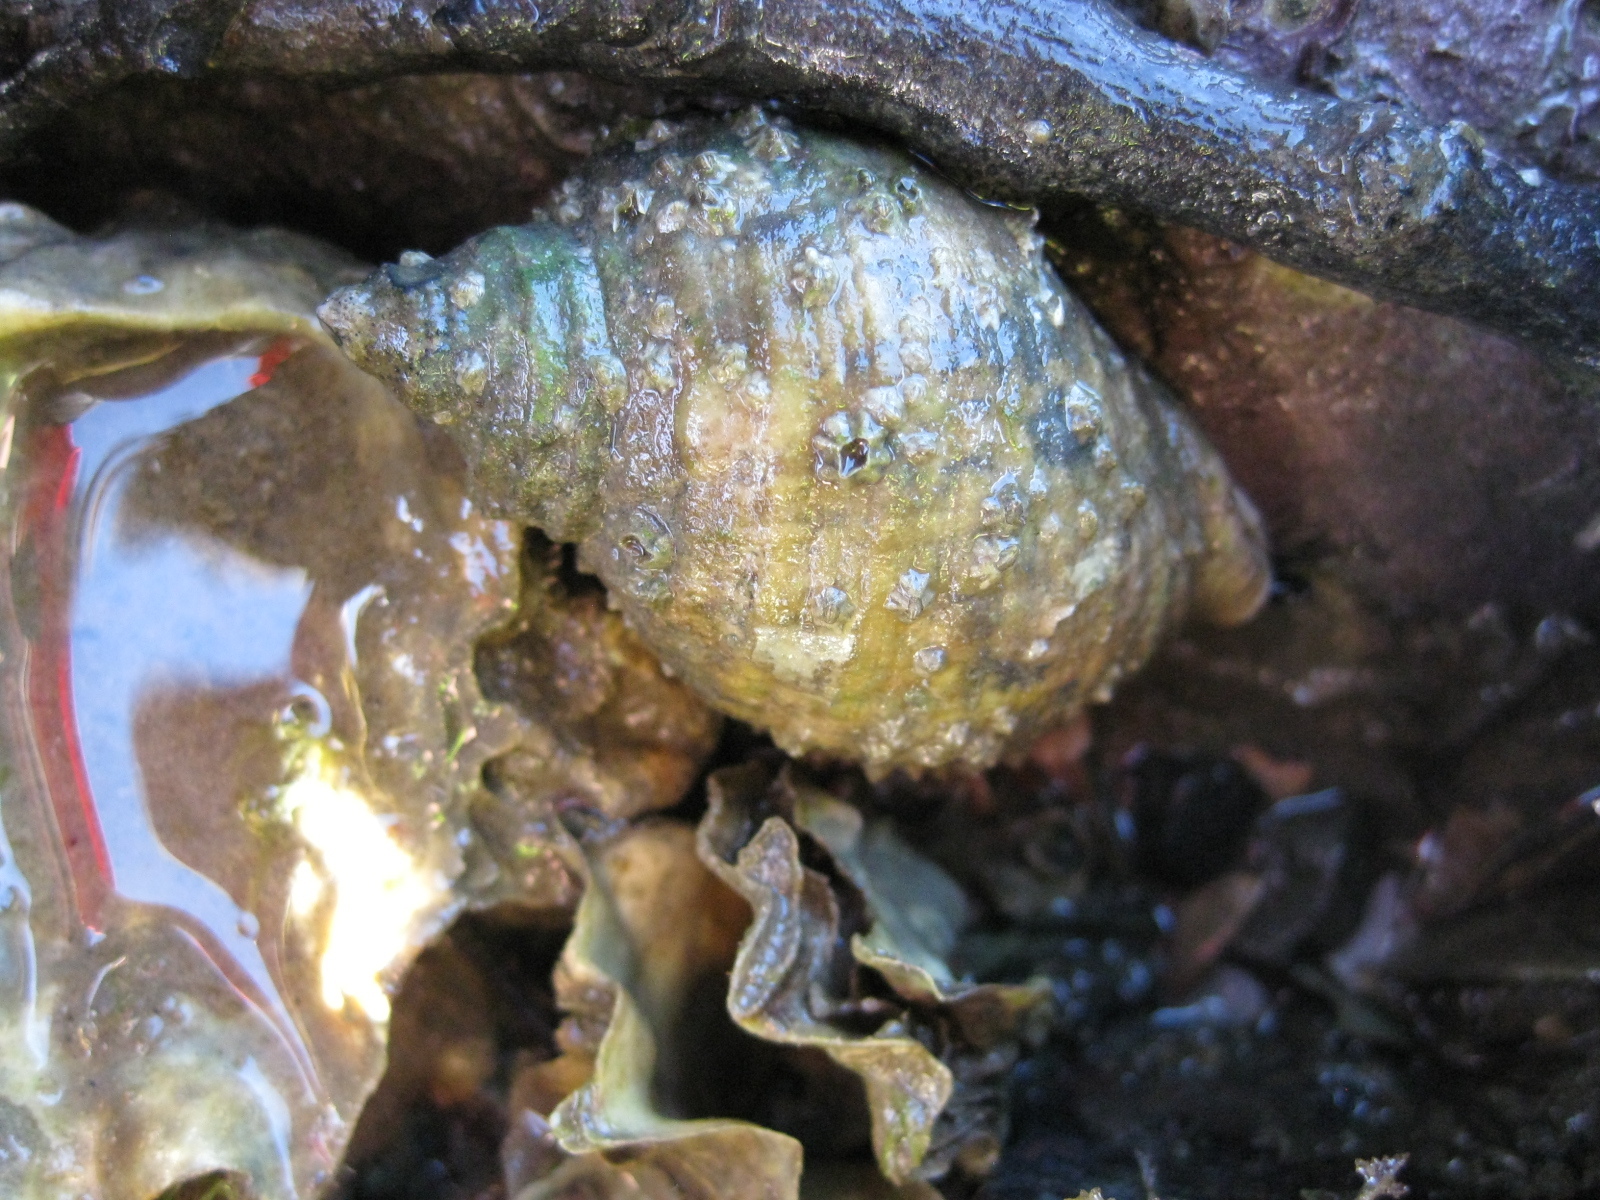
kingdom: Animalia
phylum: Mollusca
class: Gastropoda
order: Neogastropoda
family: Muricidae
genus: Dicathais
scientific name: Dicathais orbita
